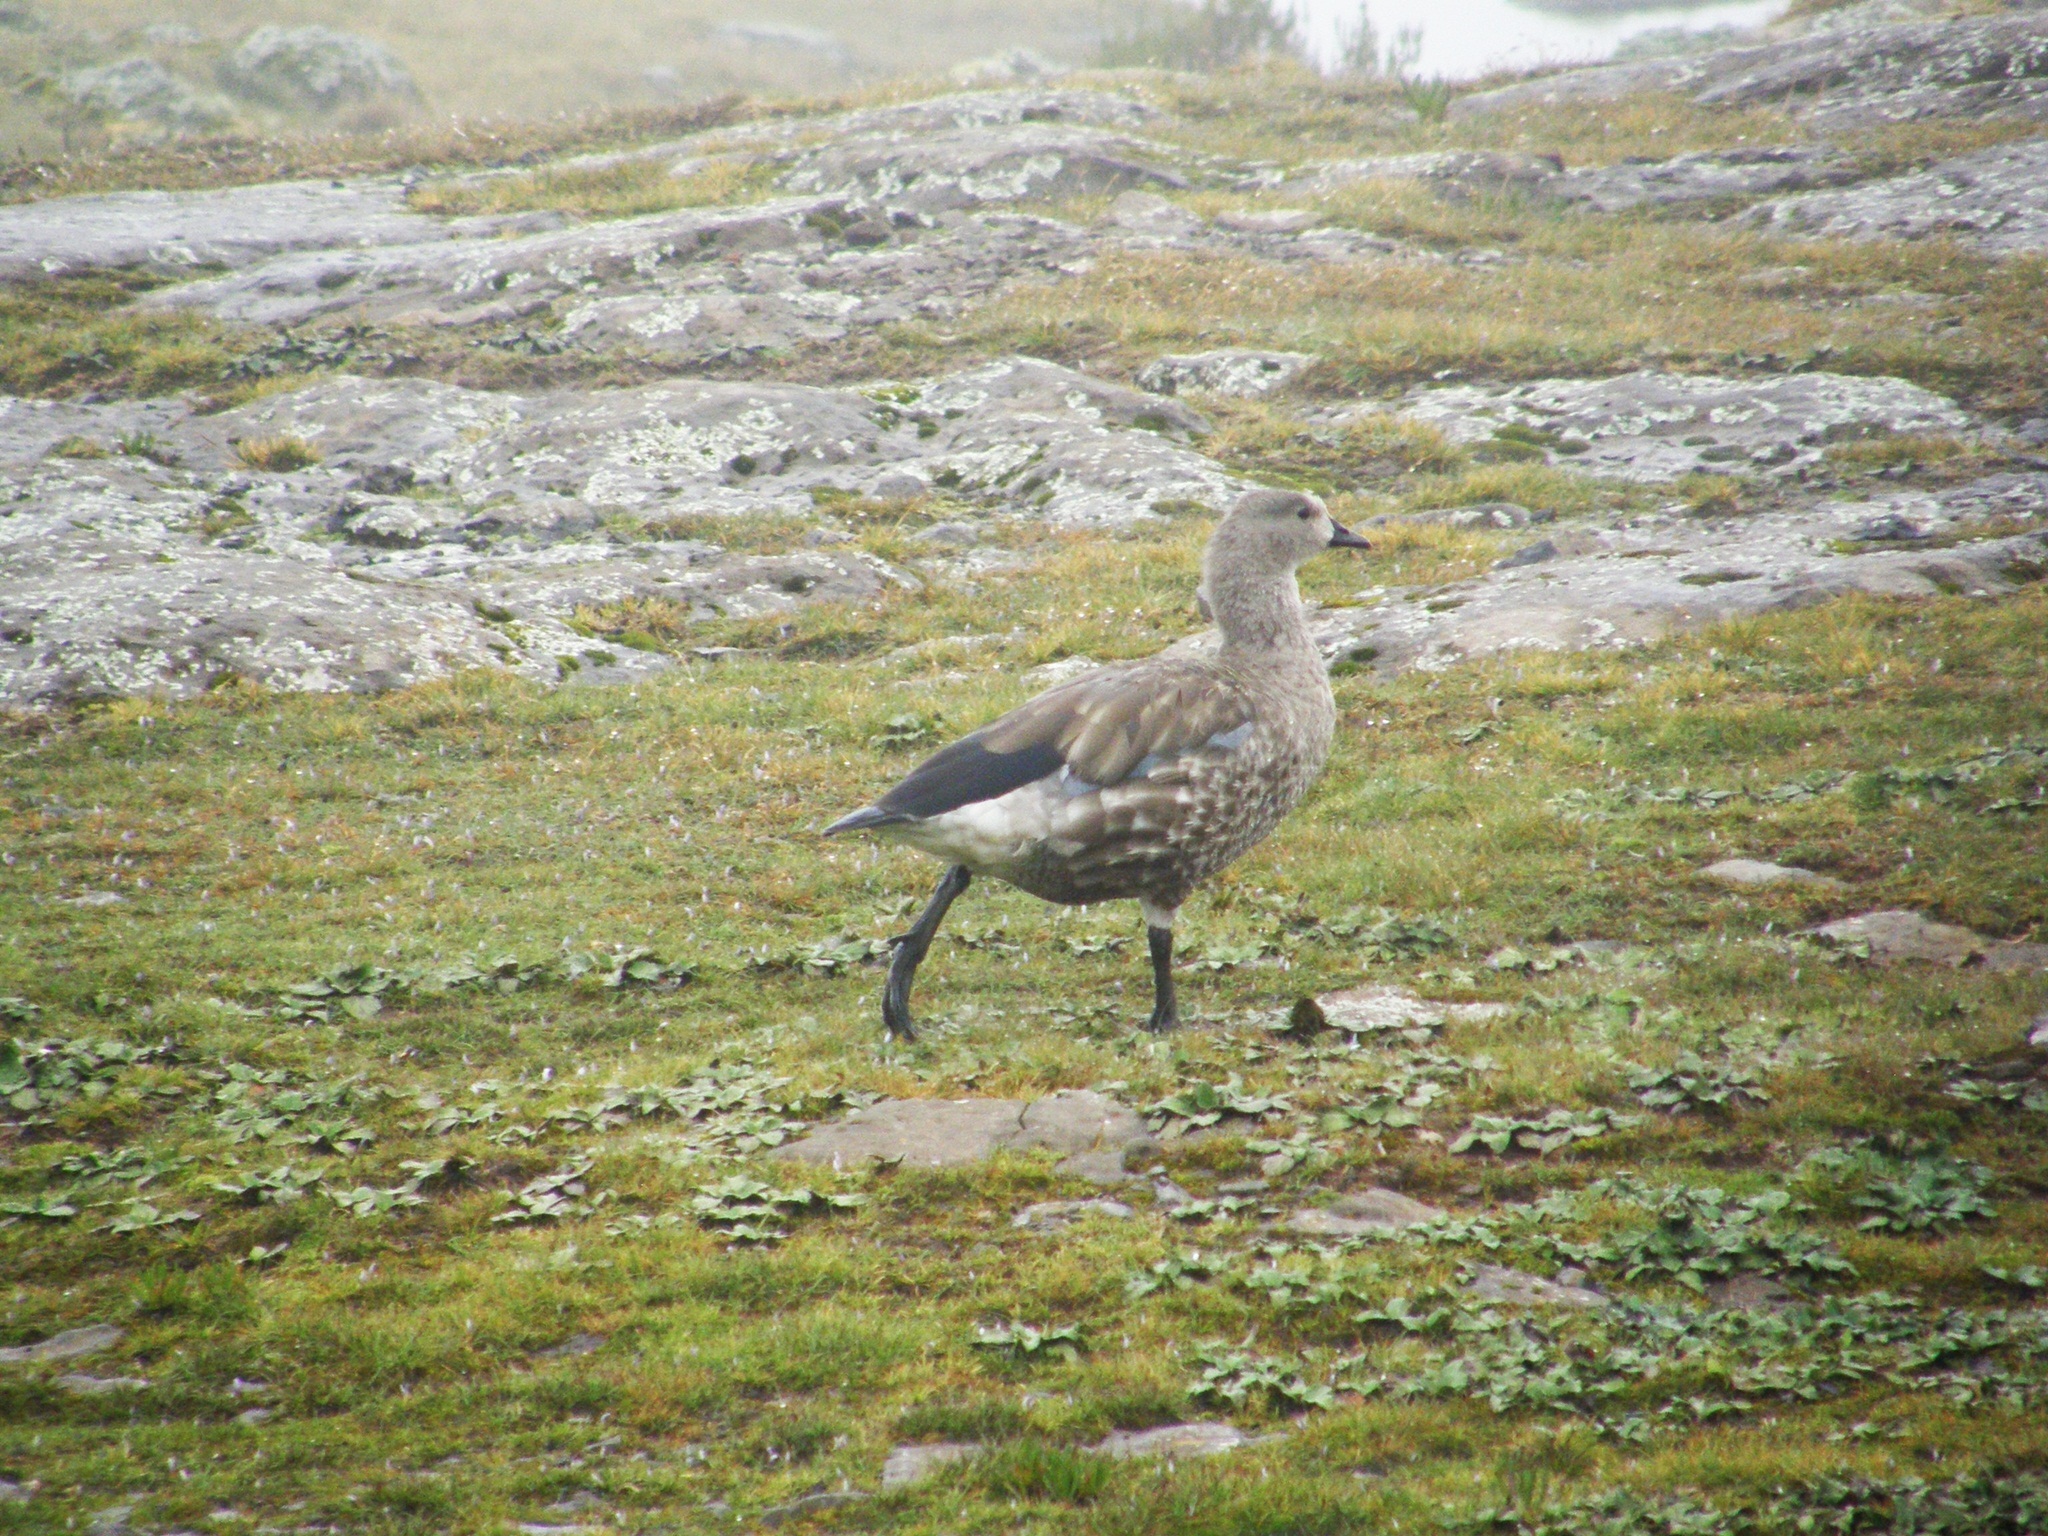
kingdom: Animalia
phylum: Chordata
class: Aves
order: Anseriformes
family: Anatidae
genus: Cyanochen
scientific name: Cyanochen cyanoptera
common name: Blue-winged goose
